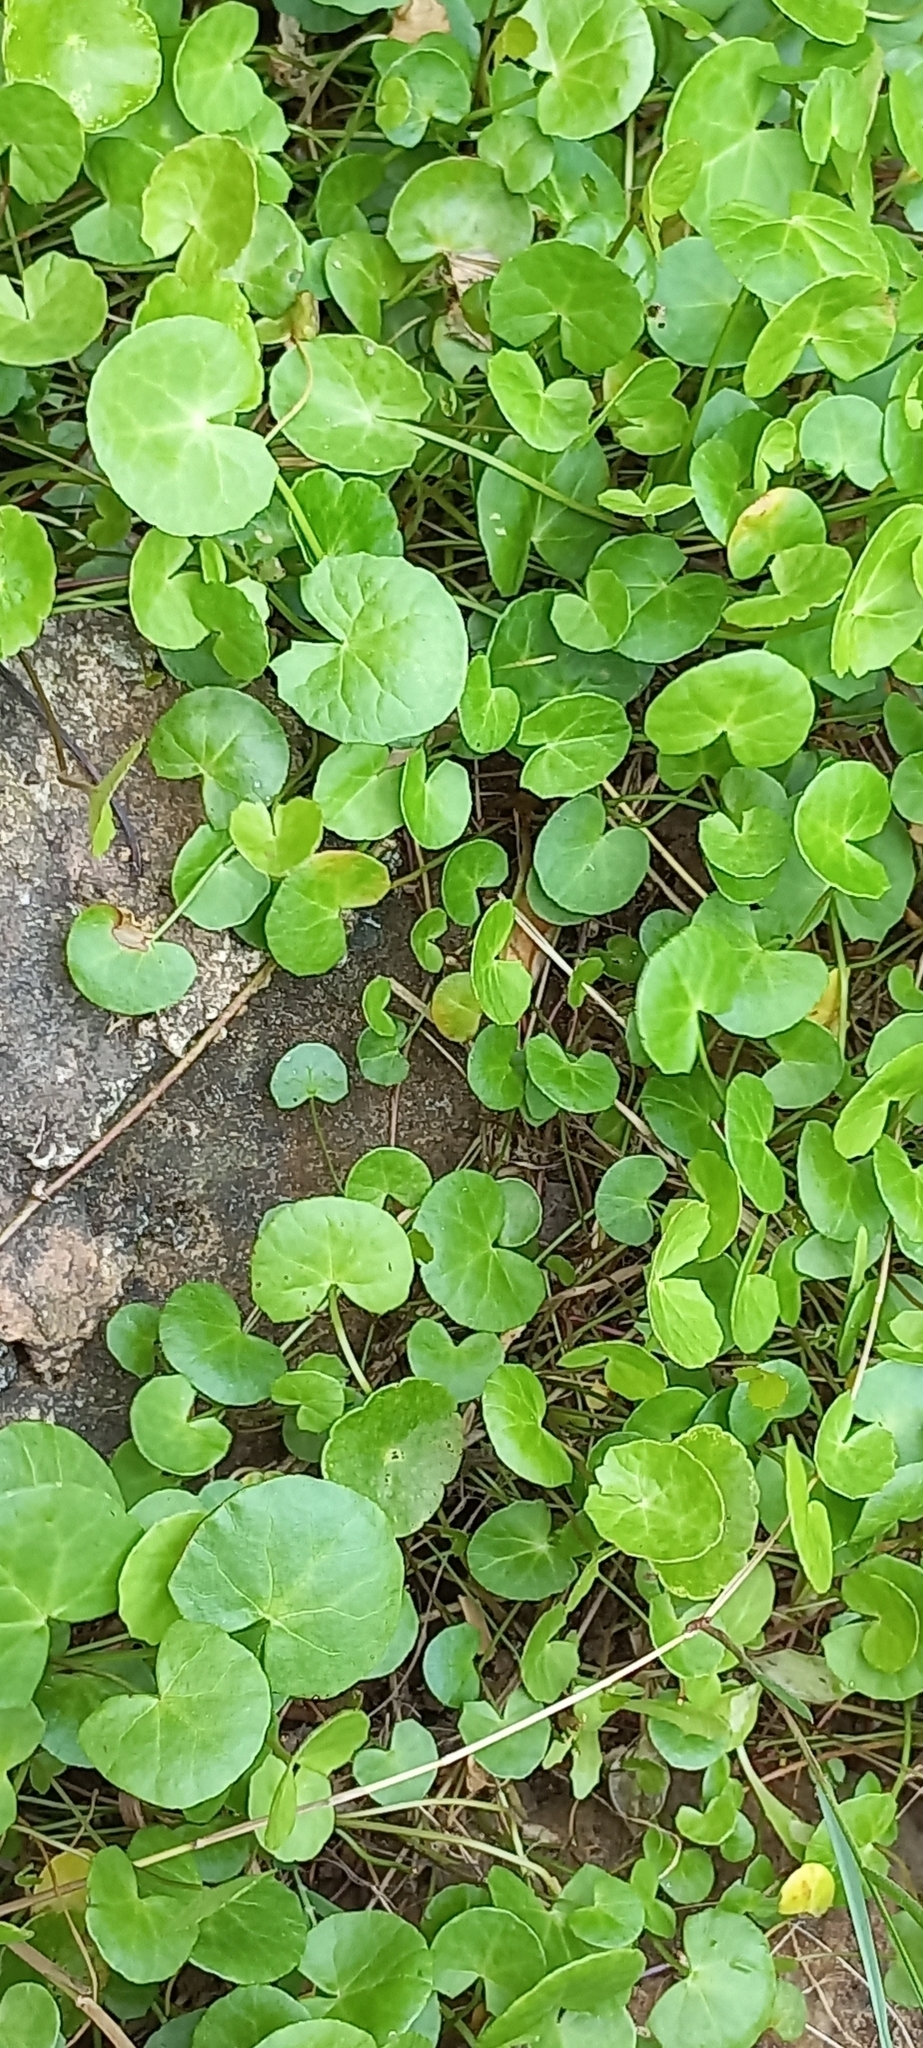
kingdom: Plantae
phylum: Tracheophyta
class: Magnoliopsida
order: Apiales
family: Apiaceae
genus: Centella
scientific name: Centella asiatica
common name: Spadeleaf
